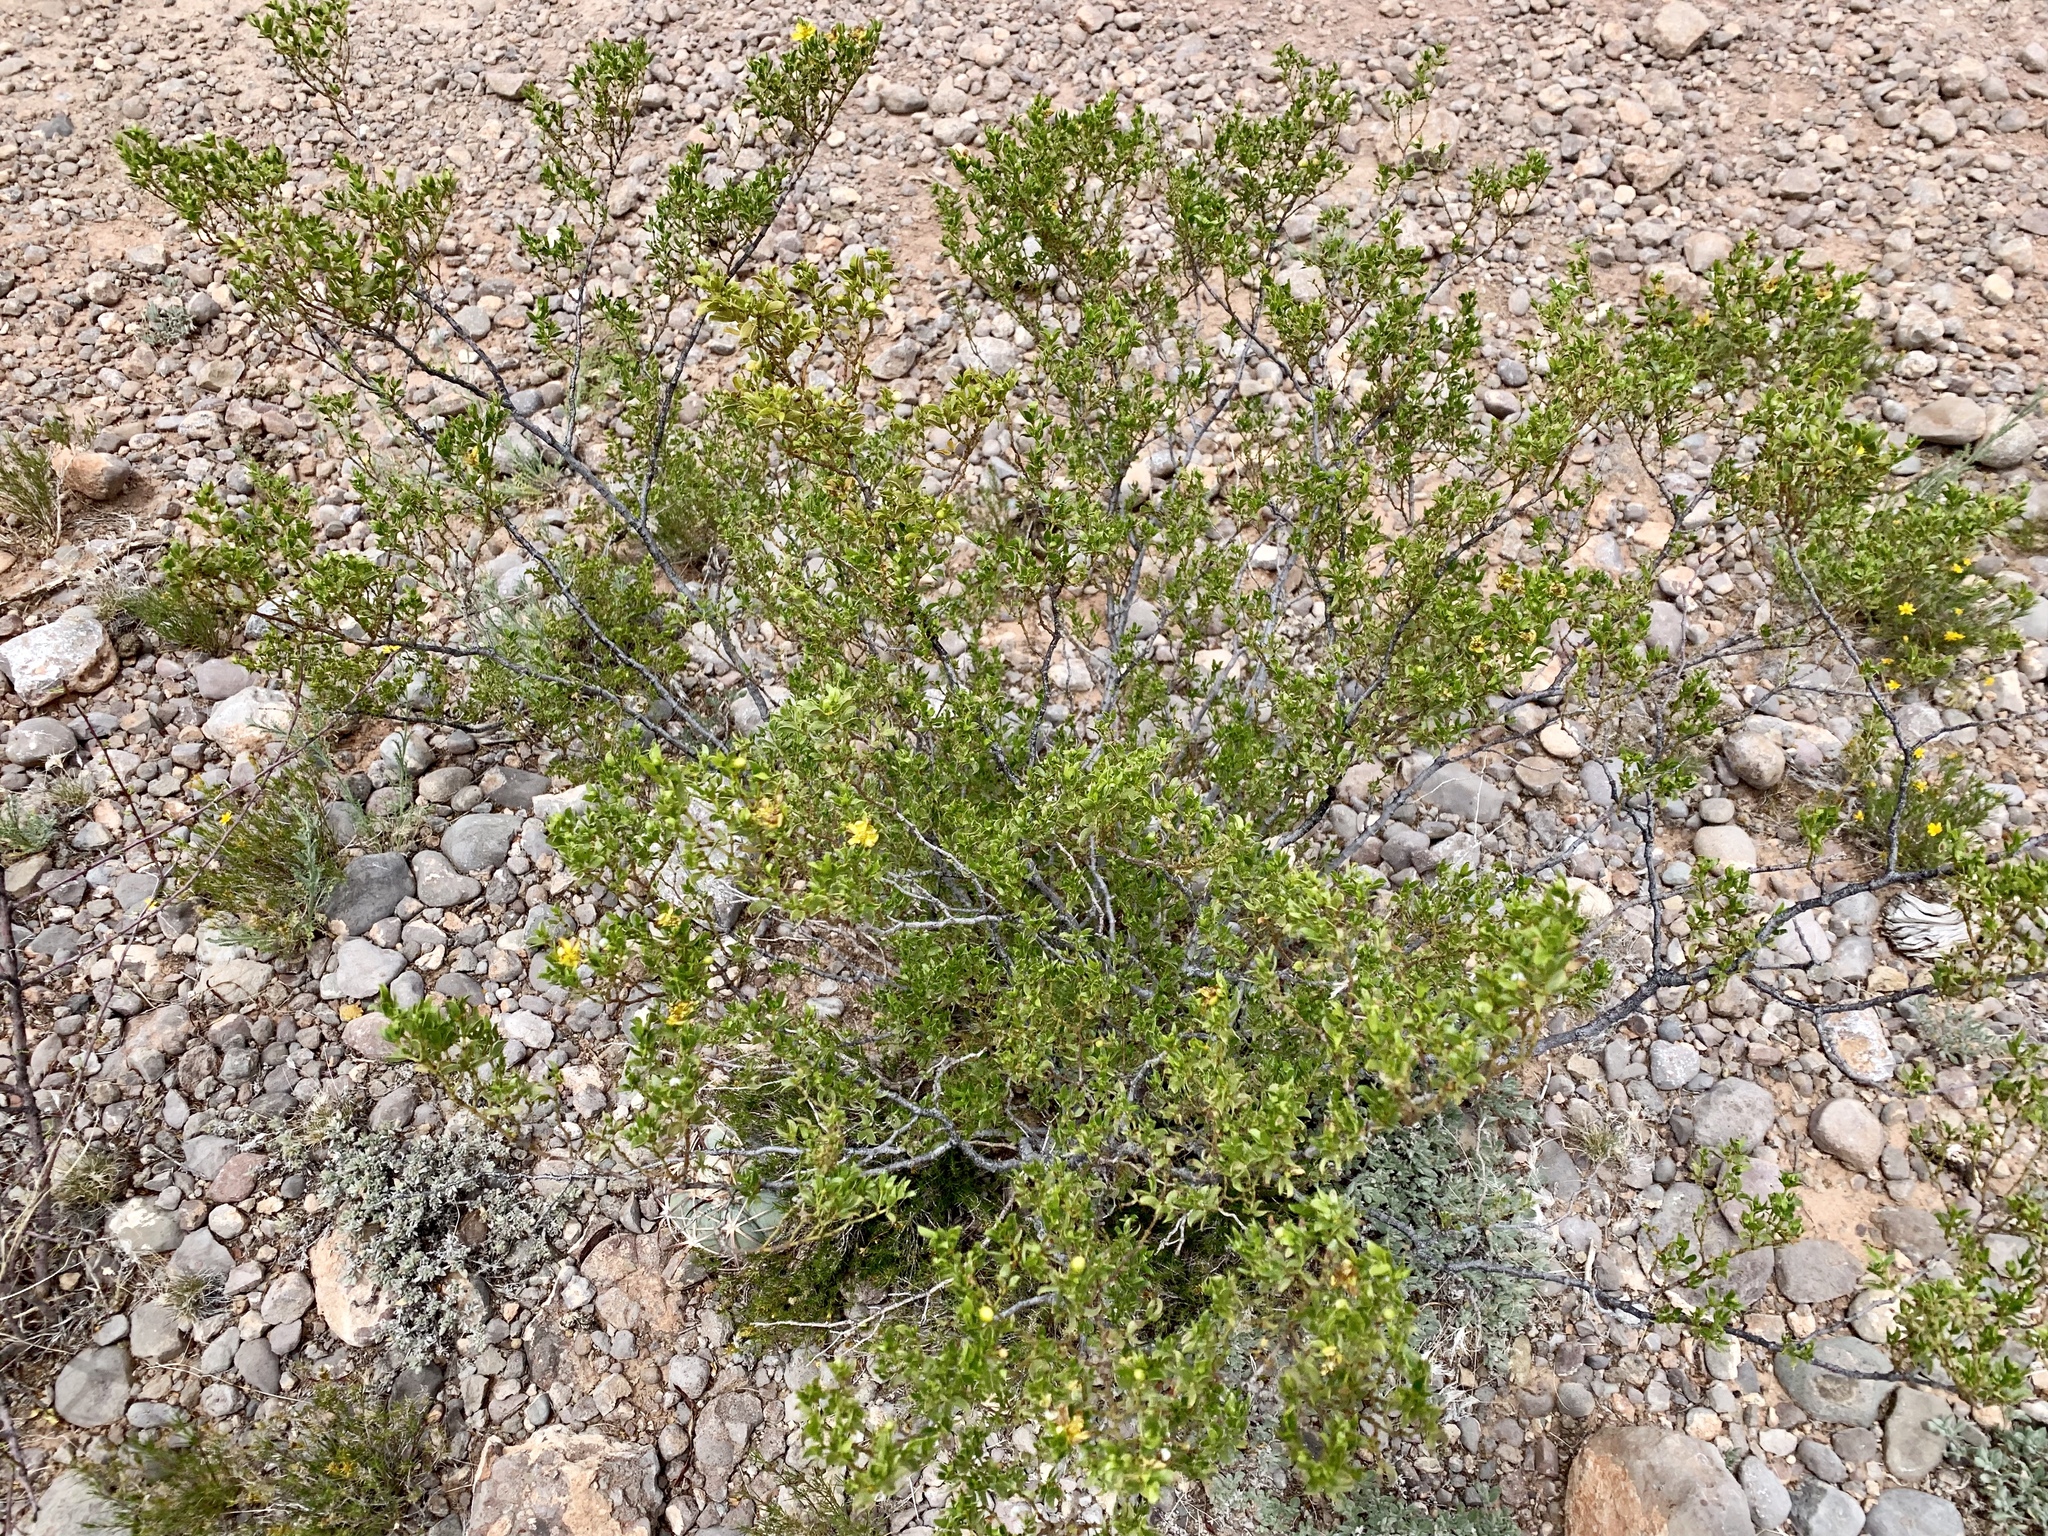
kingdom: Plantae
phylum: Tracheophyta
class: Magnoliopsida
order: Zygophyllales
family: Zygophyllaceae
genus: Larrea
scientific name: Larrea tridentata
